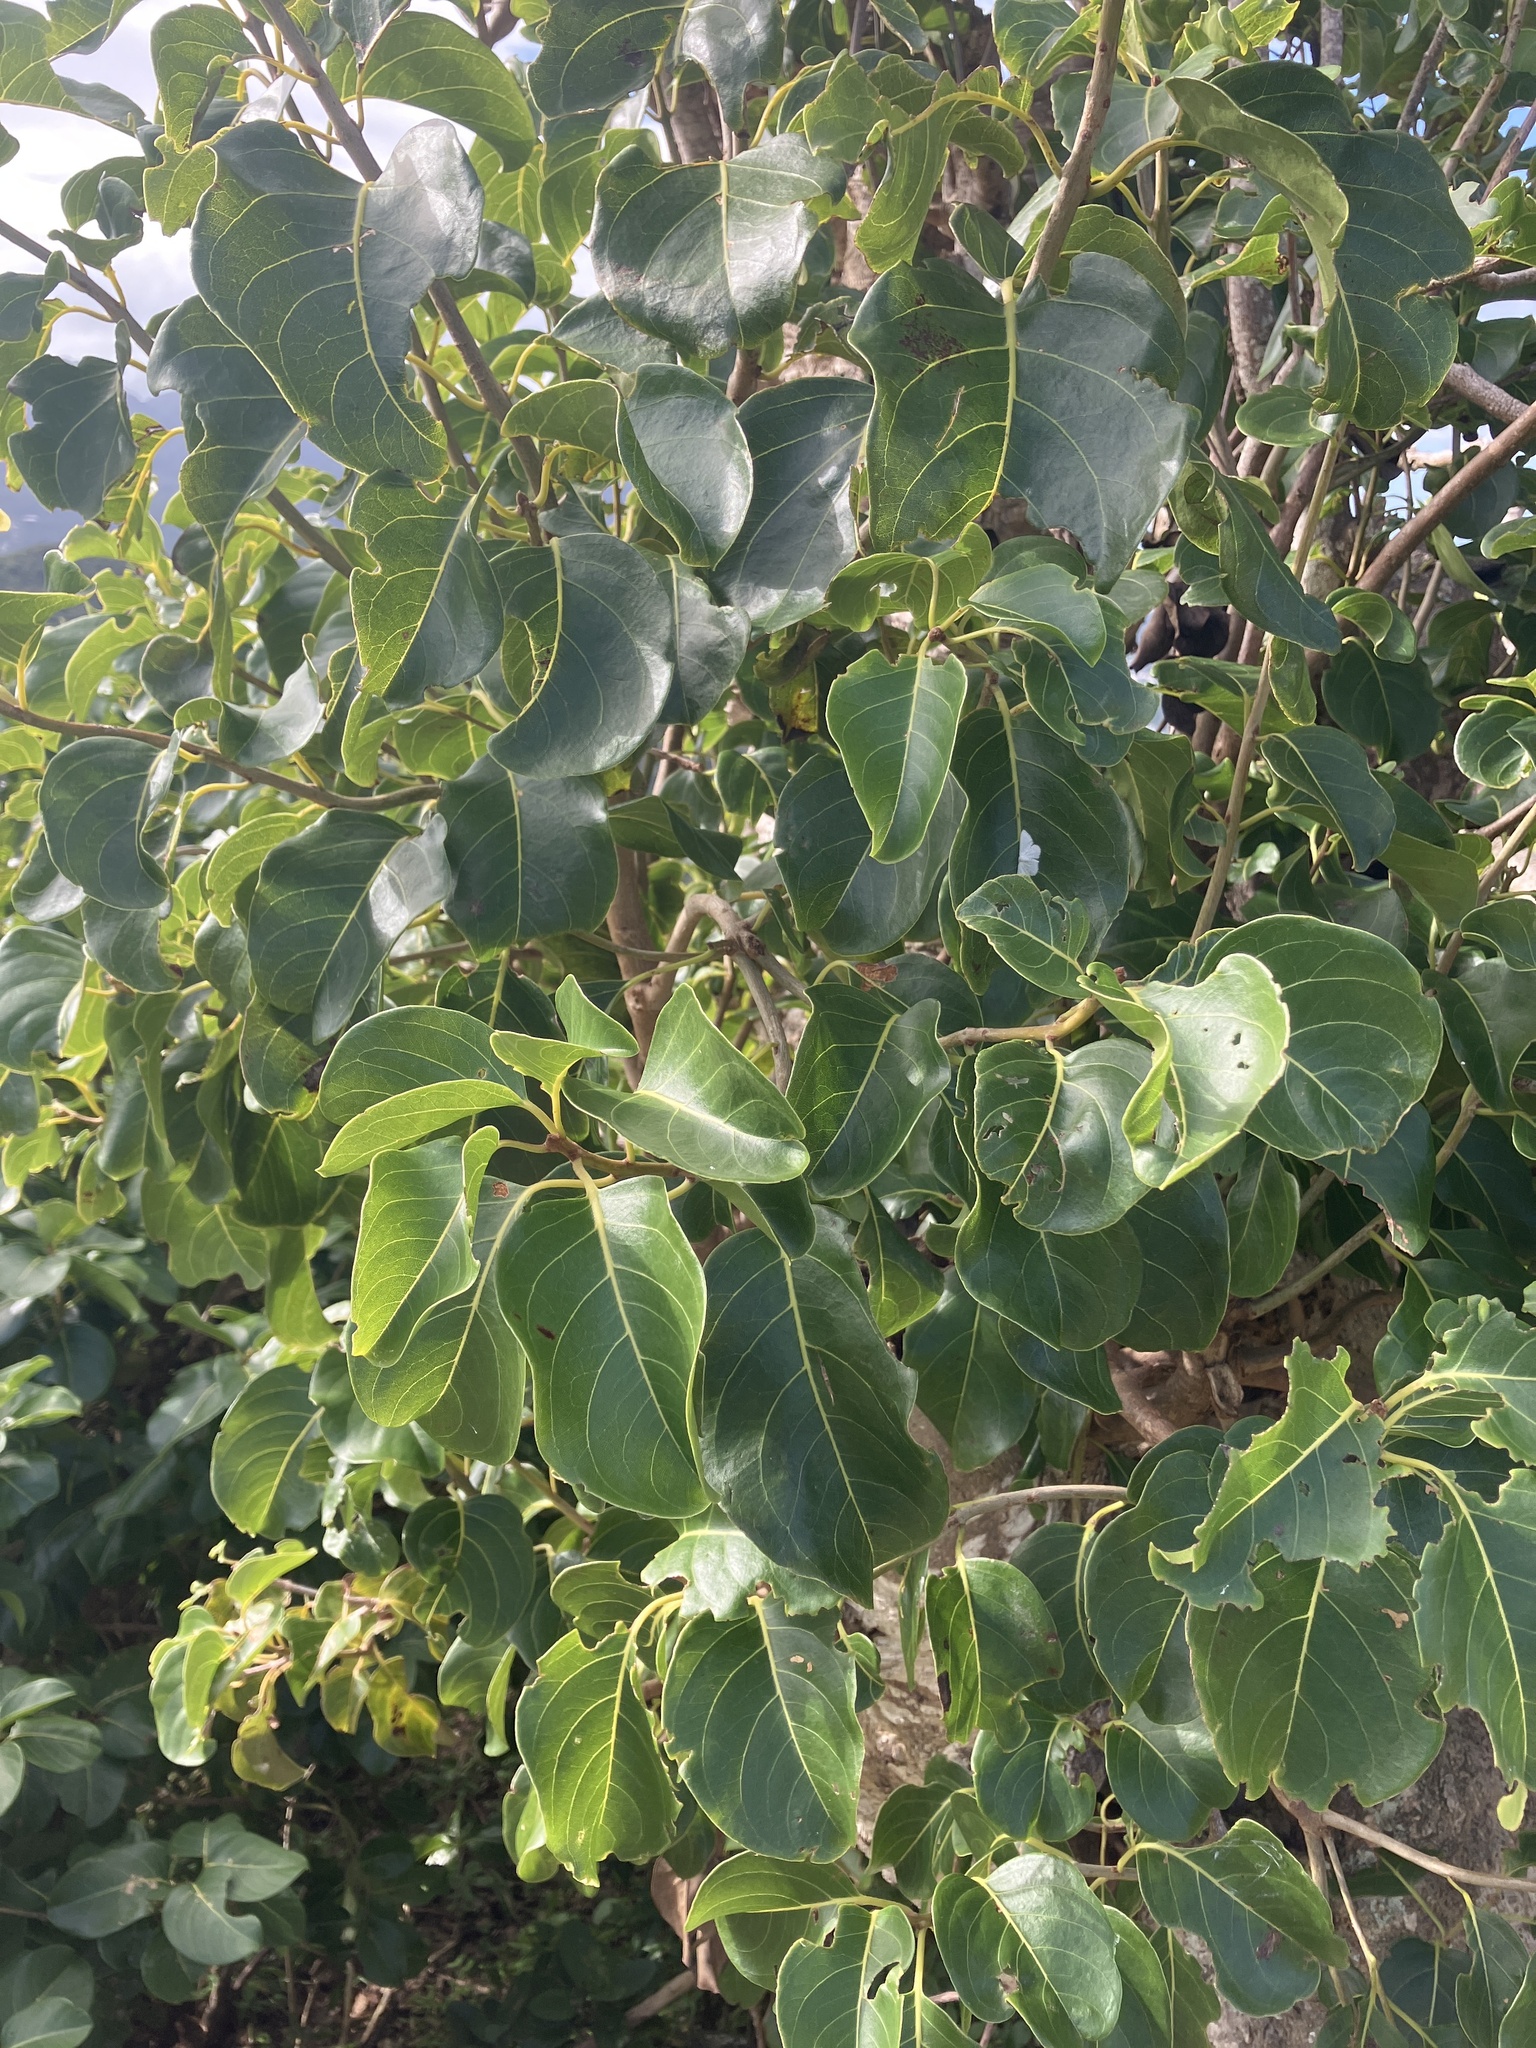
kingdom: Plantae
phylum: Tracheophyta
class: Magnoliopsida
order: Caryophyllales
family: Nyctaginaceae
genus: Pisonia
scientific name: Pisonia subcordata
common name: Mampoo
